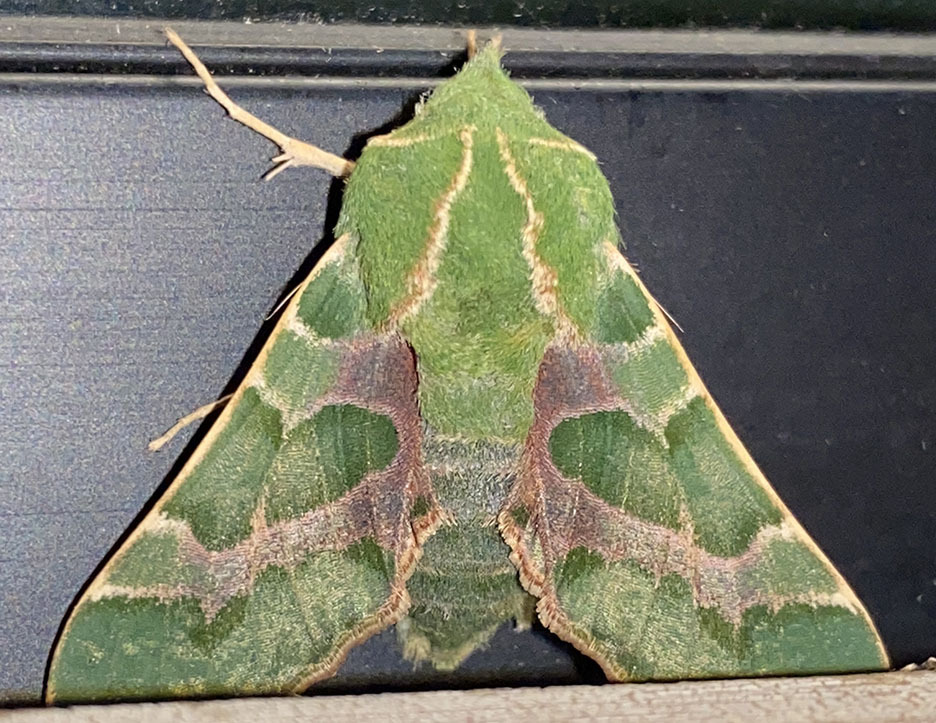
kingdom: Animalia
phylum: Arthropoda
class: Insecta
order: Lepidoptera
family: Sphingidae
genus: Proserpinus
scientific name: Proserpinus lucidus
